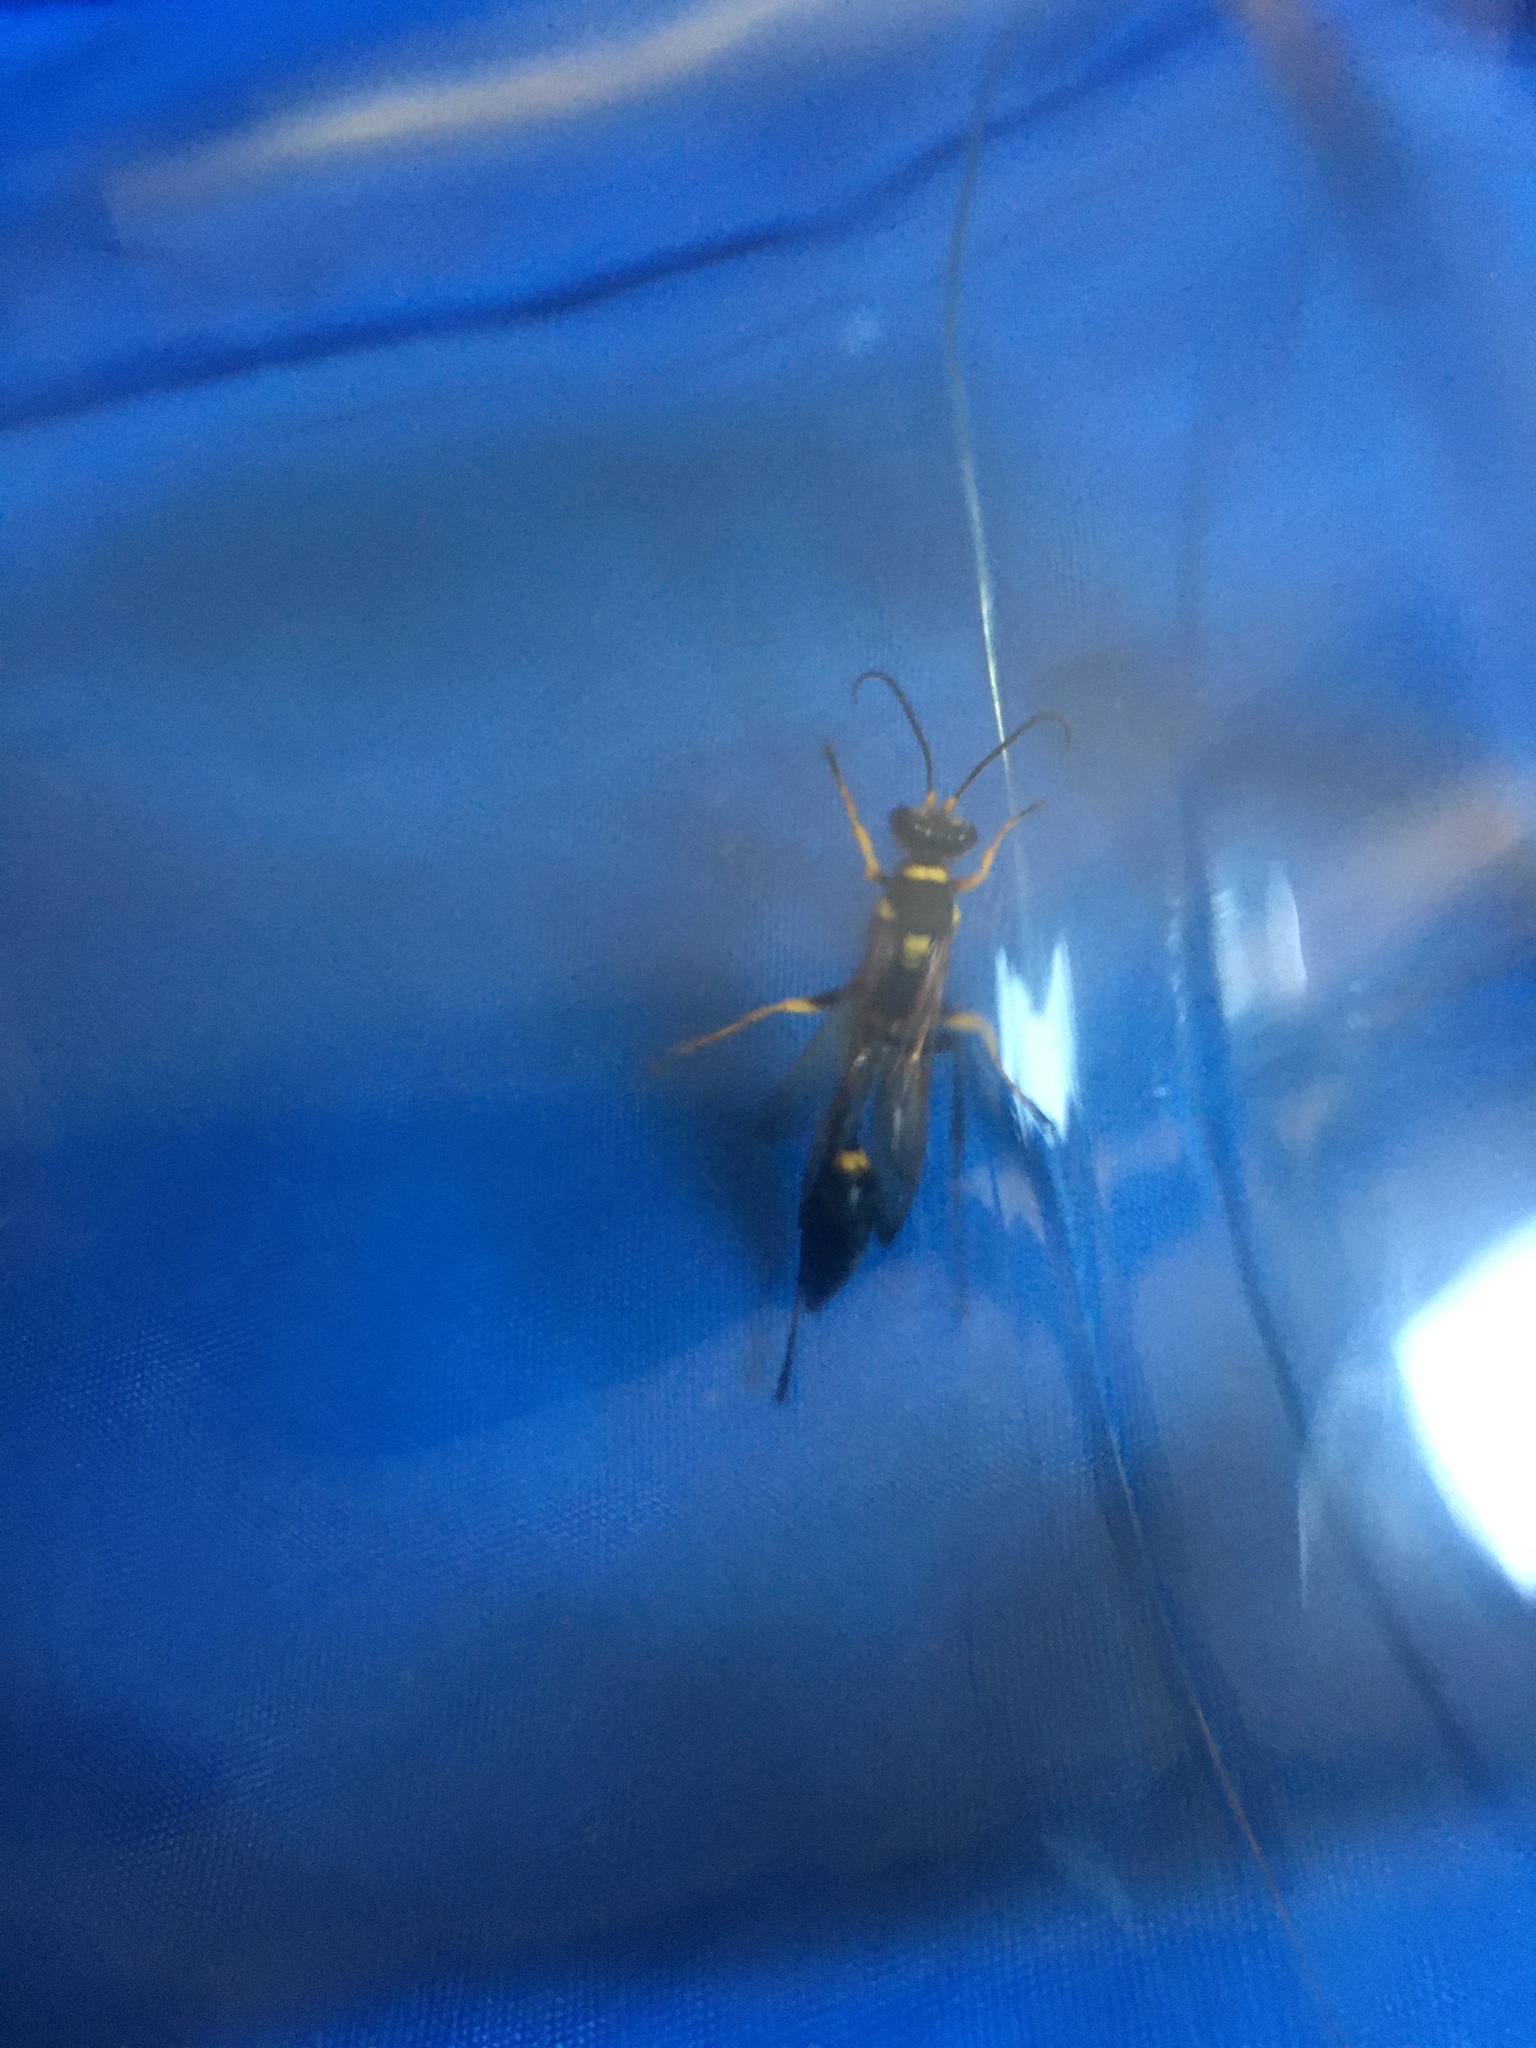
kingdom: Animalia
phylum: Arthropoda
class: Insecta
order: Hymenoptera
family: Sphecidae
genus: Sceliphron
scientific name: Sceliphron asiaticum
